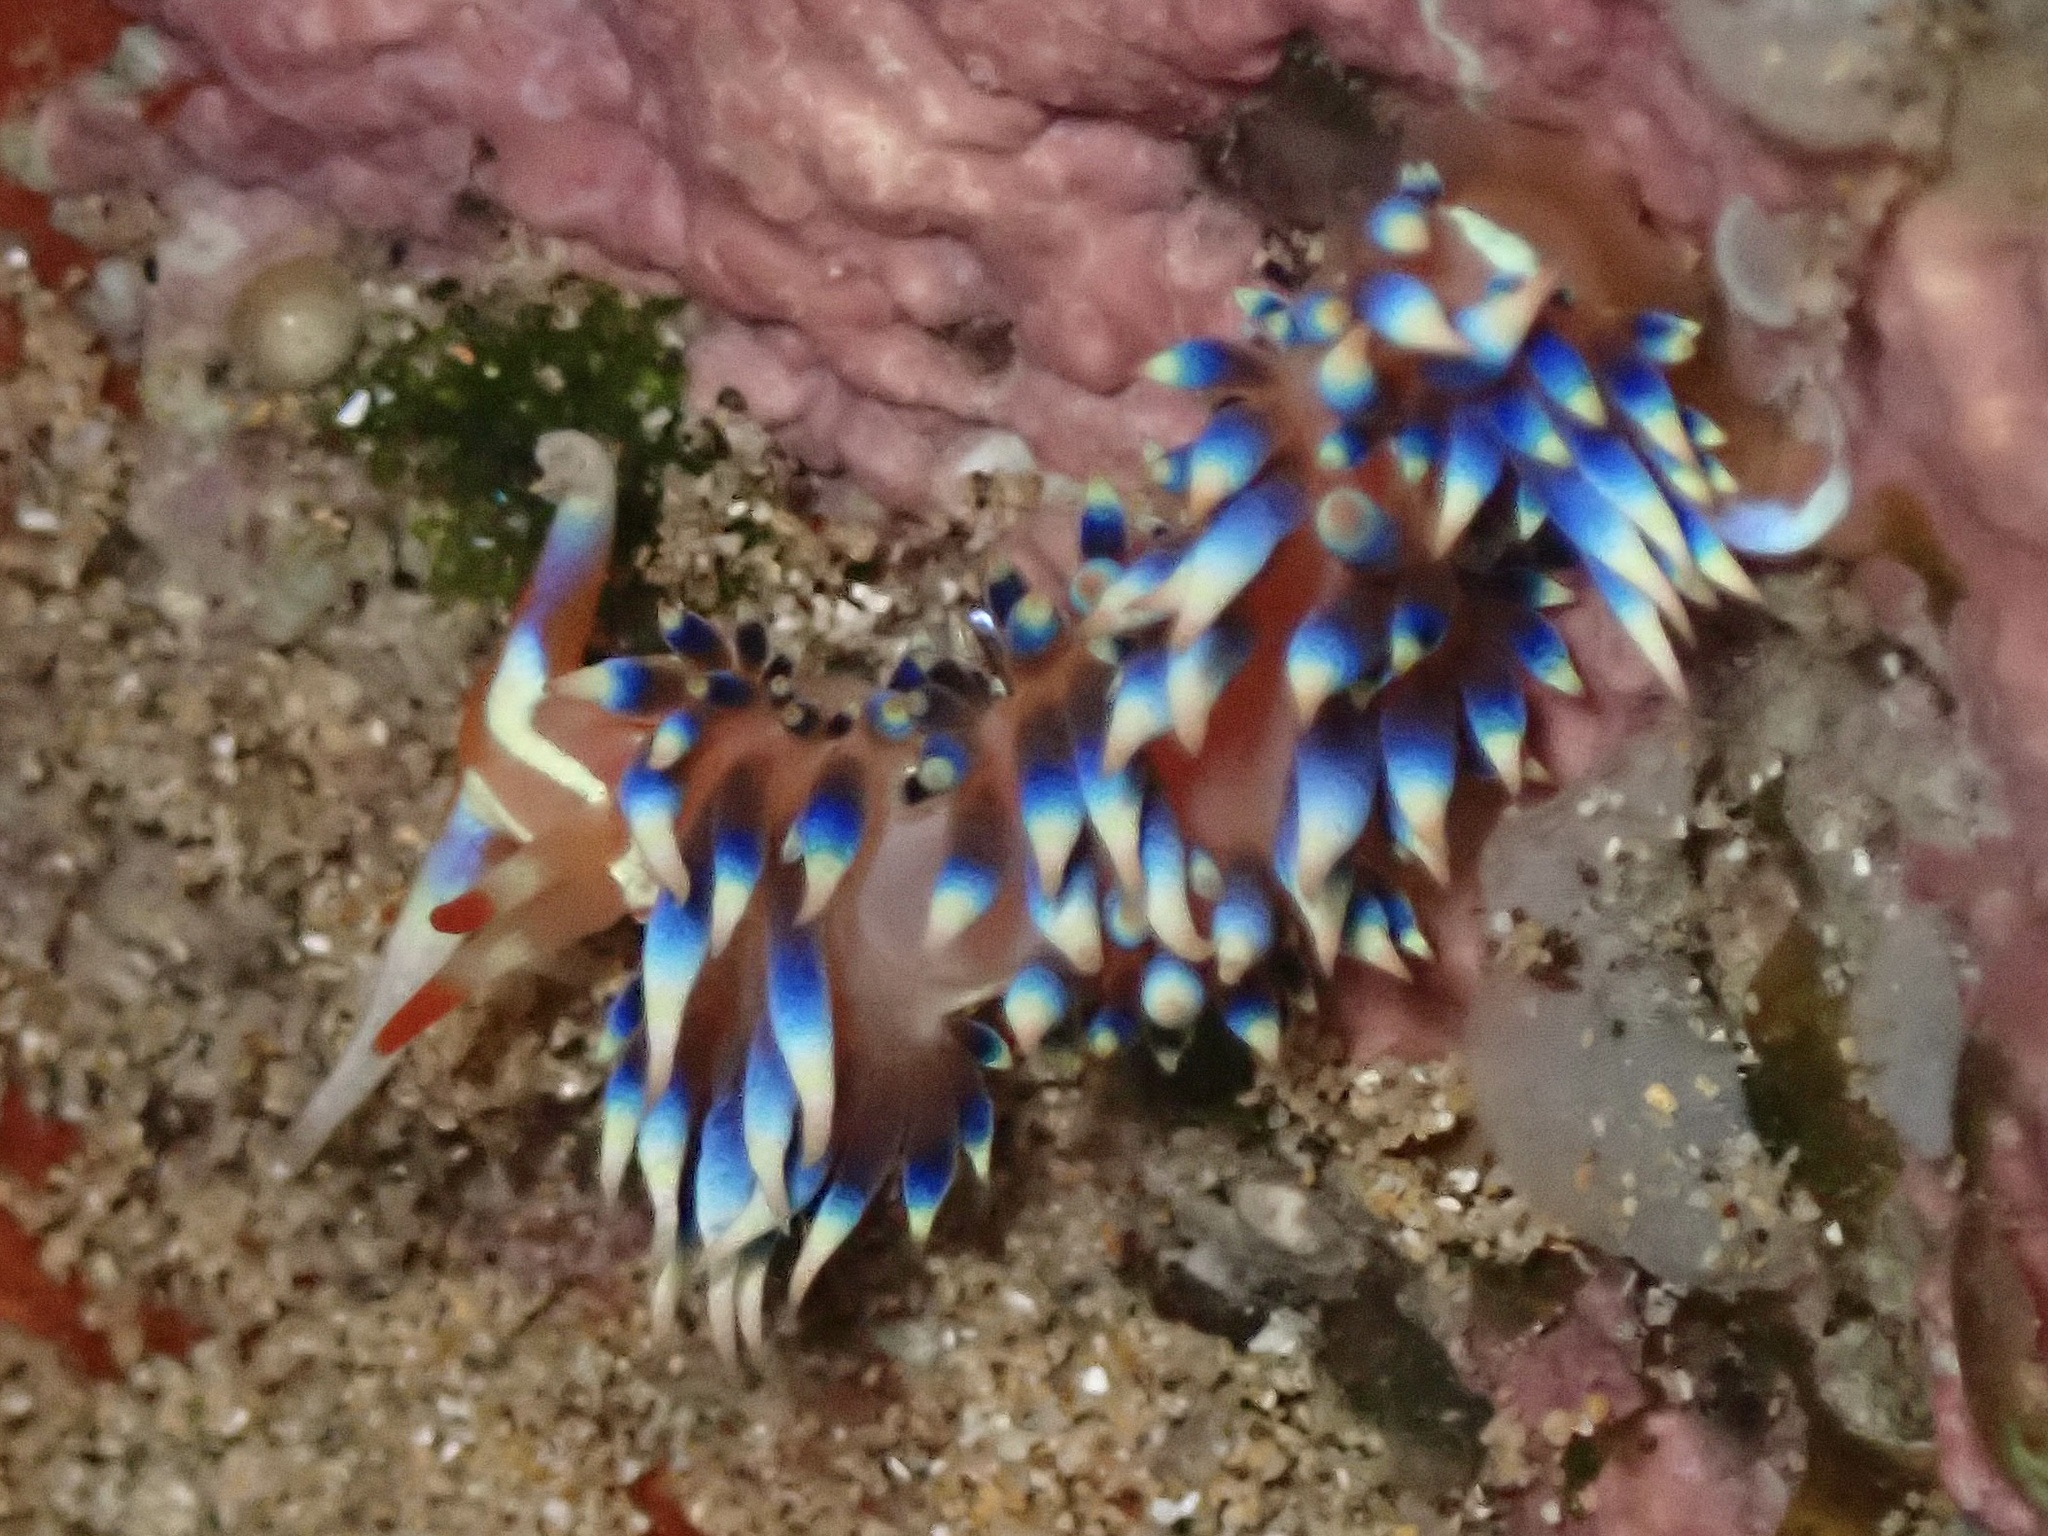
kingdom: Animalia
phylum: Mollusca
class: Gastropoda
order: Nudibranchia
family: Facelinidae
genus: Caloria
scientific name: Caloria indica
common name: Sea slug
